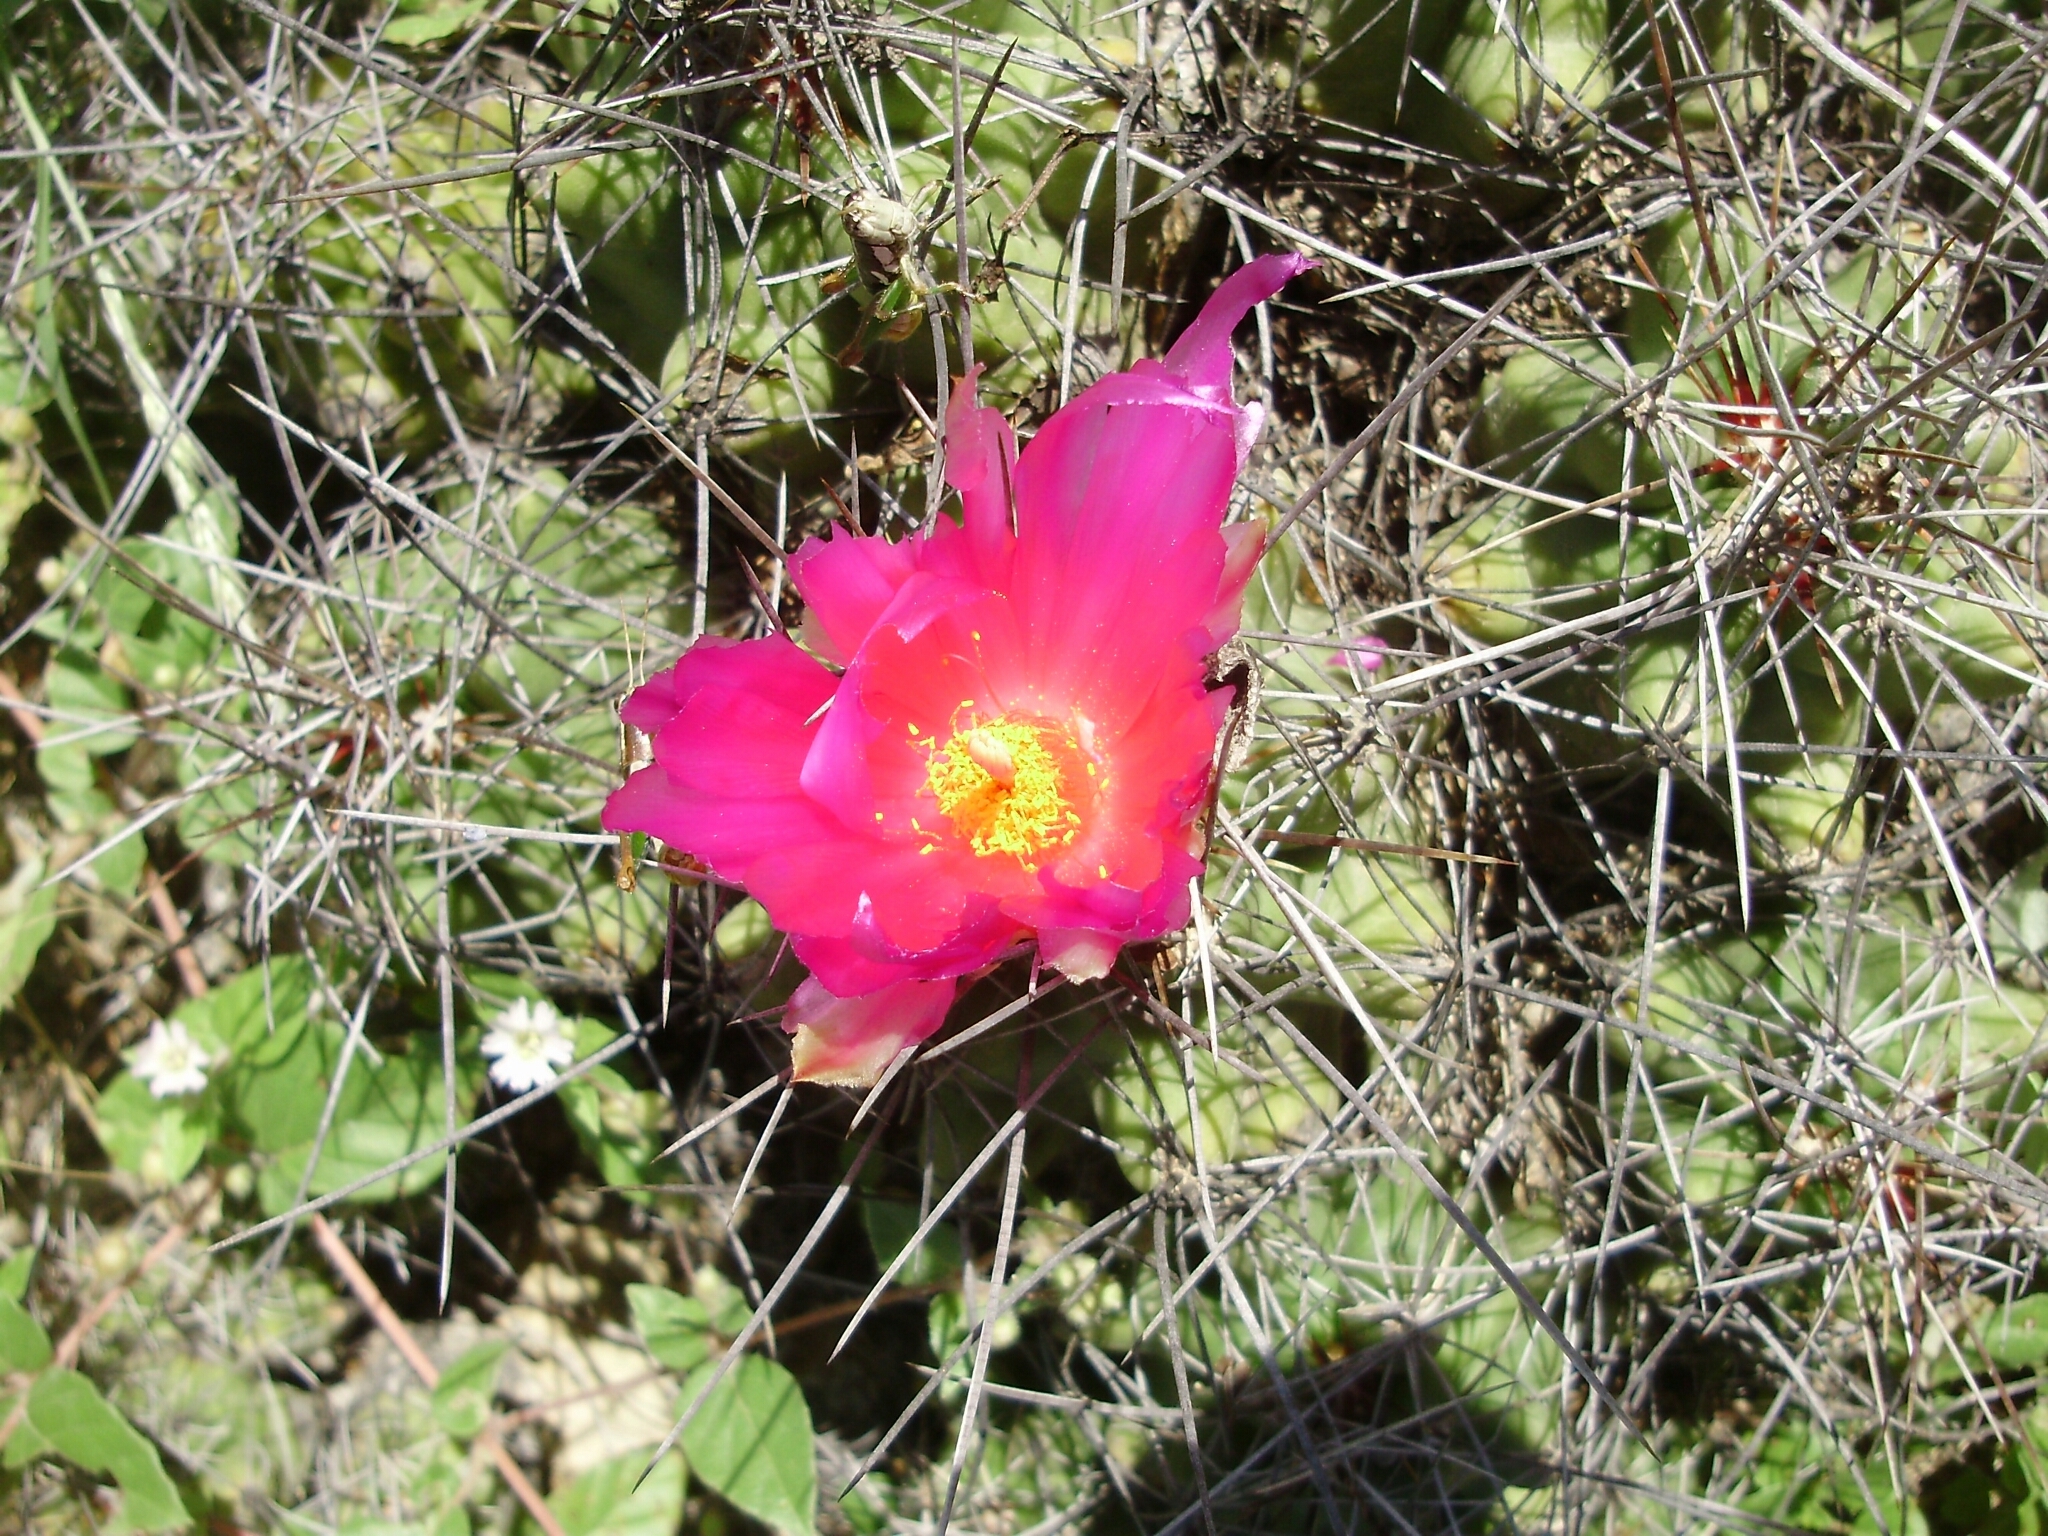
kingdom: Plantae
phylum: Tracheophyta
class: Magnoliopsida
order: Caryophyllales
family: Cactaceae
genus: Thelocactus
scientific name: Thelocactus leucacanthus
